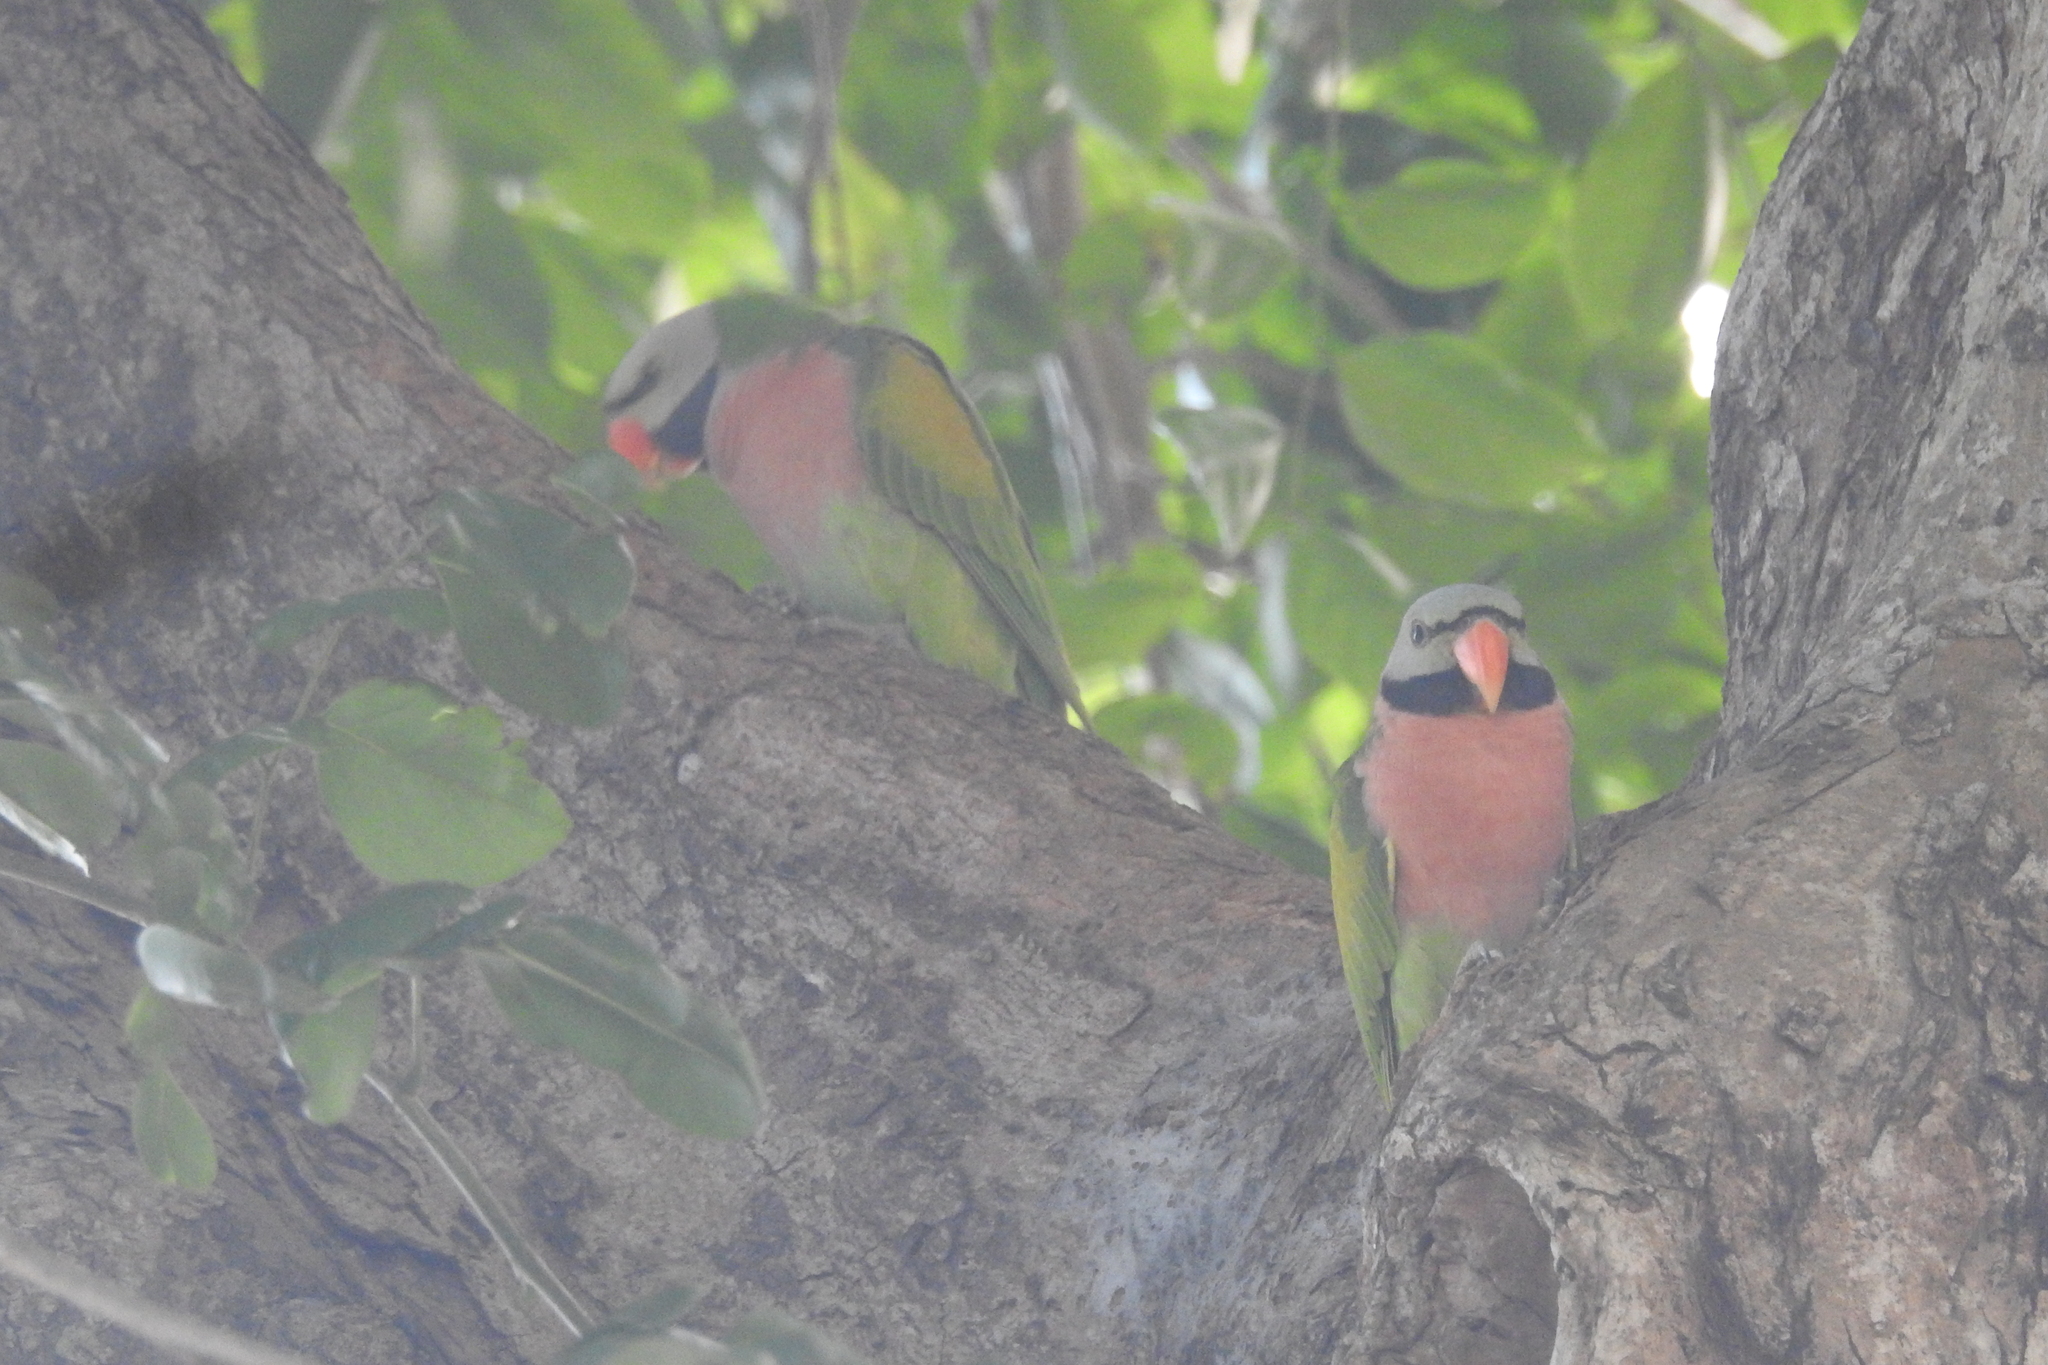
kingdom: Animalia
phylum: Chordata
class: Aves
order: Psittaciformes
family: Psittacidae
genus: Psittacula
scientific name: Psittacula alexandri
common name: Red-breasted parakeet
